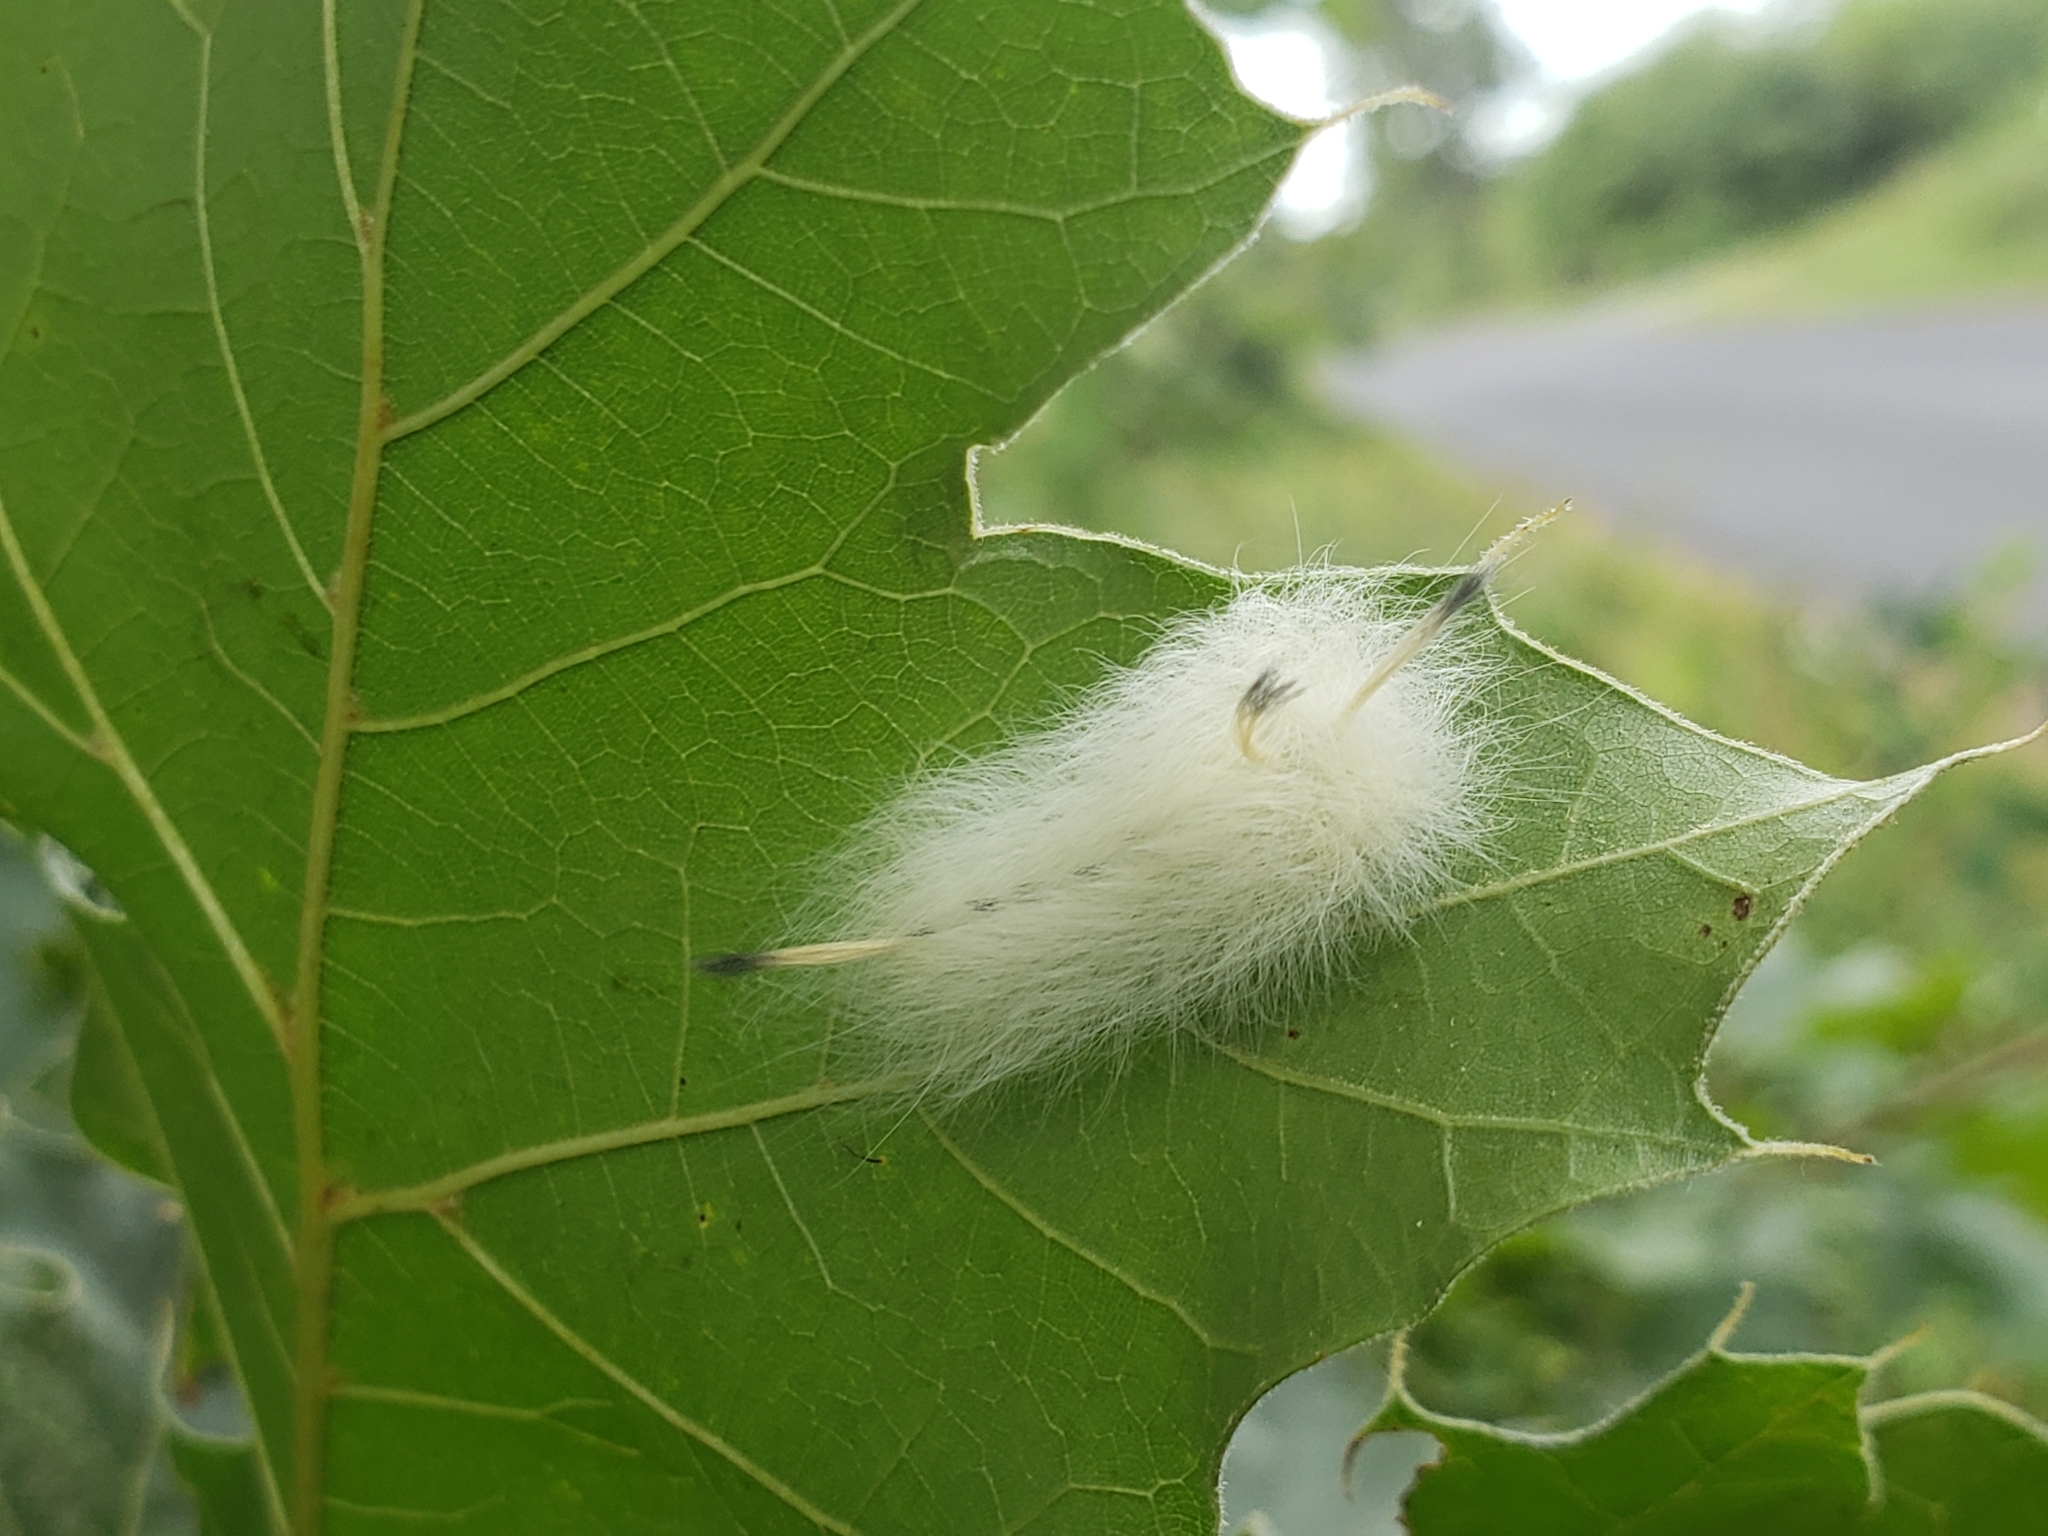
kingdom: Animalia
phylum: Arthropoda
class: Insecta
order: Lepidoptera
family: Apatelodidae
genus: Hygrochroa
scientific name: Hygrochroa Apatelodes torrefacta
